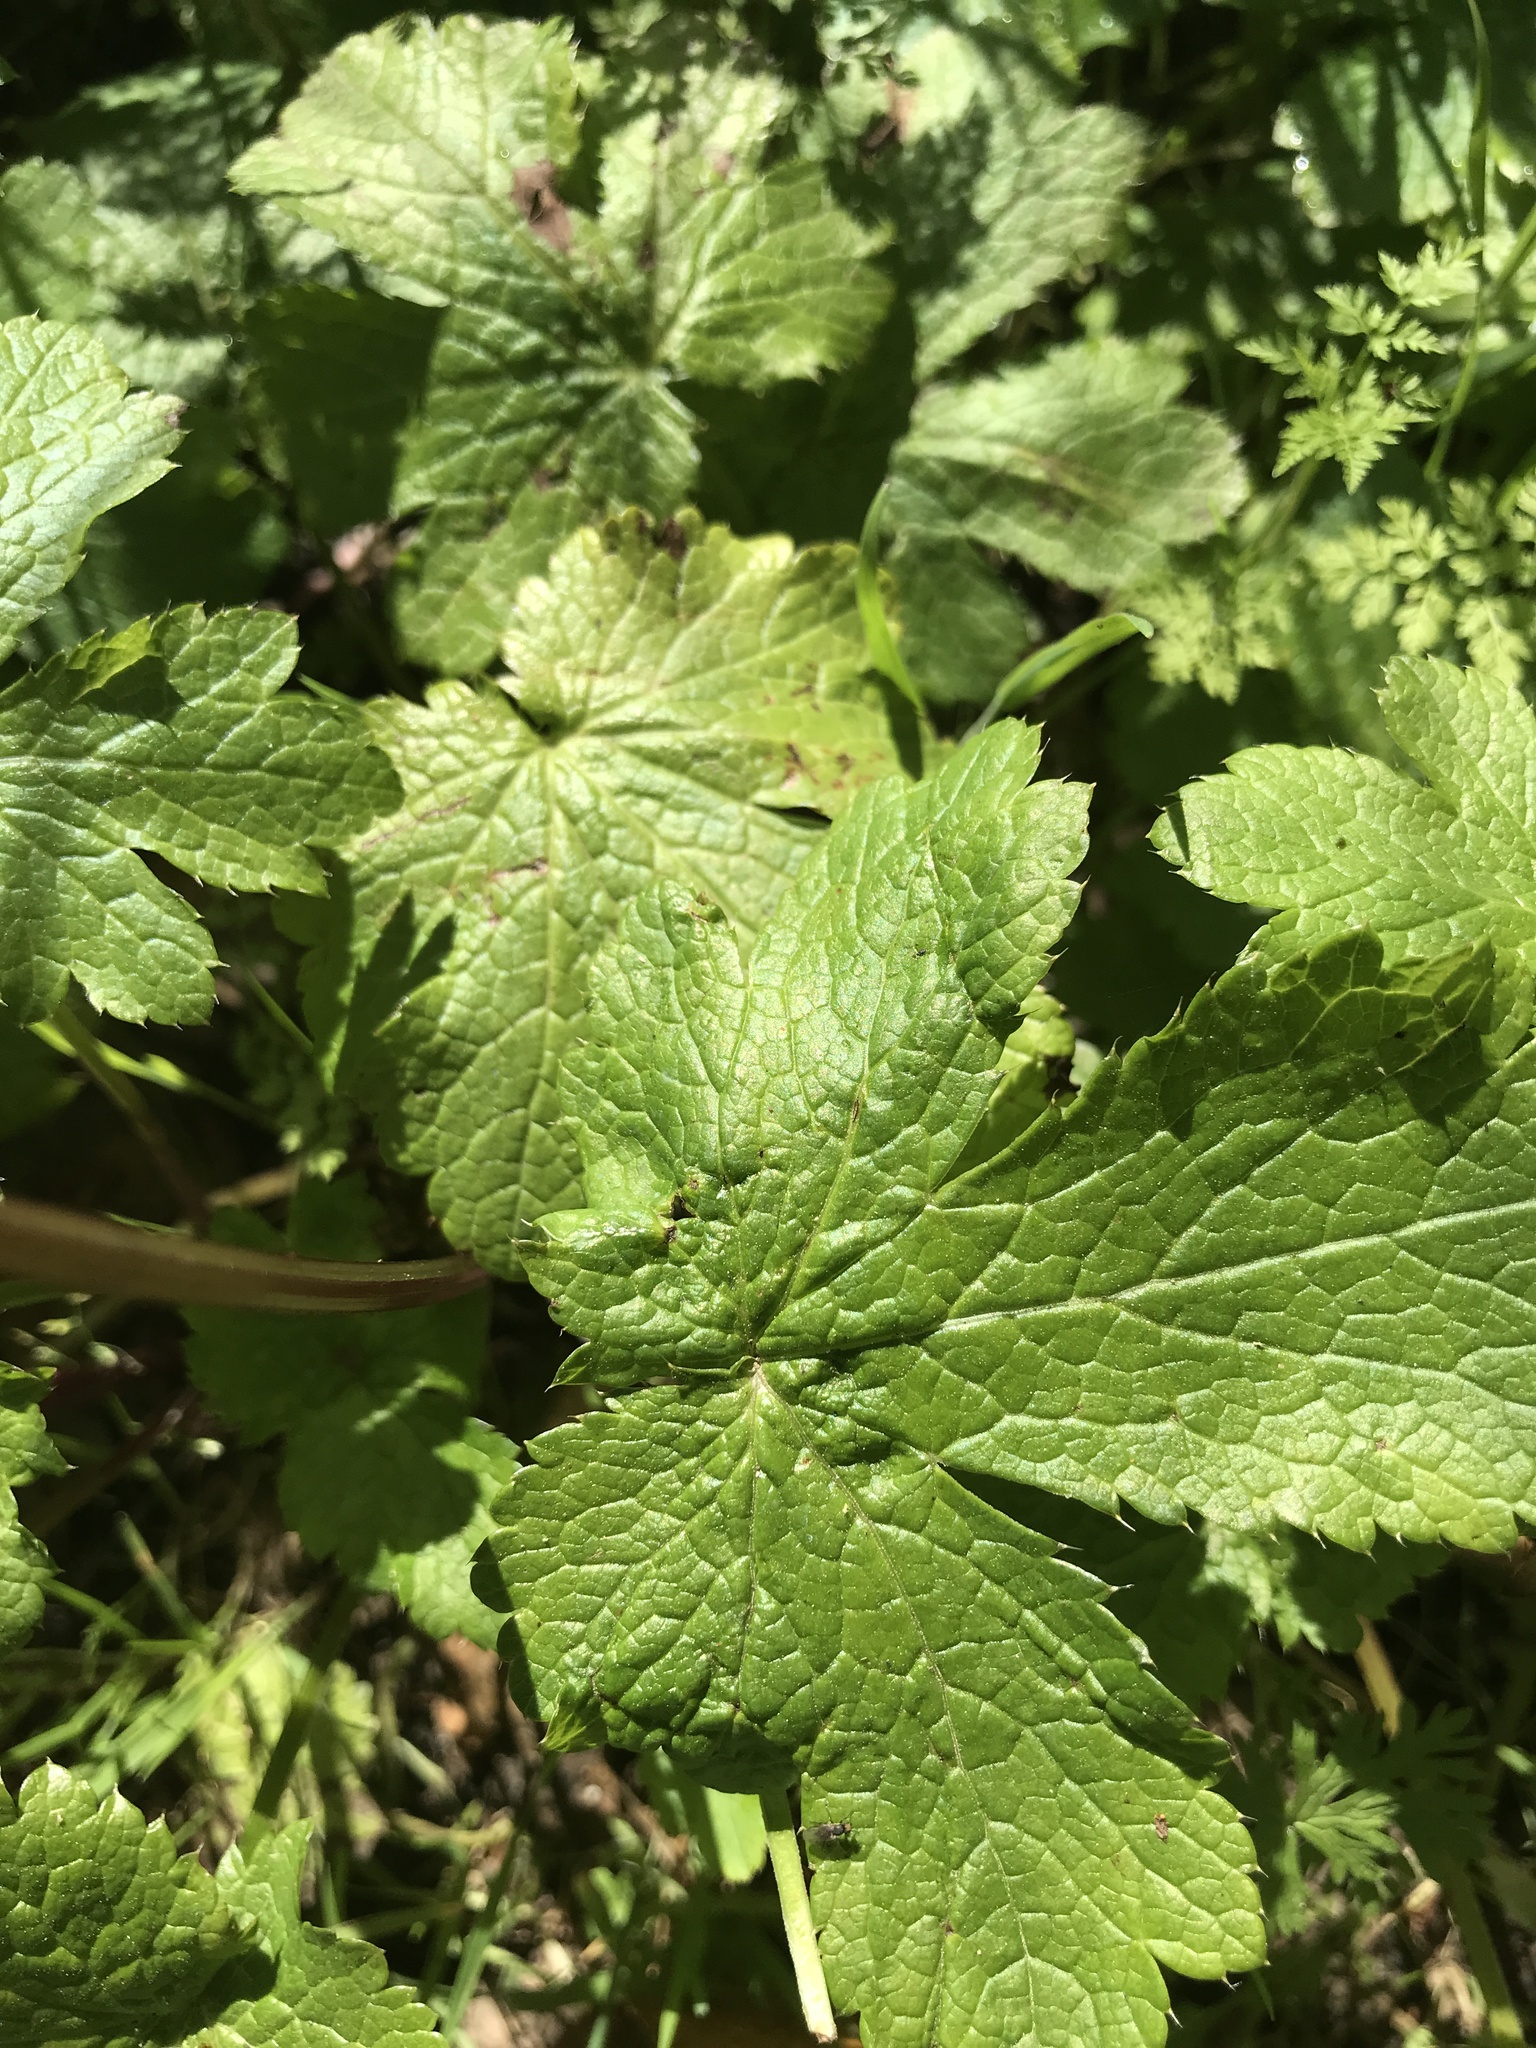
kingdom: Plantae
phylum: Tracheophyta
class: Magnoliopsida
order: Apiales
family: Apiaceae
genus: Sanicula
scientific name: Sanicula crassicaulis
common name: Western snakeroot
